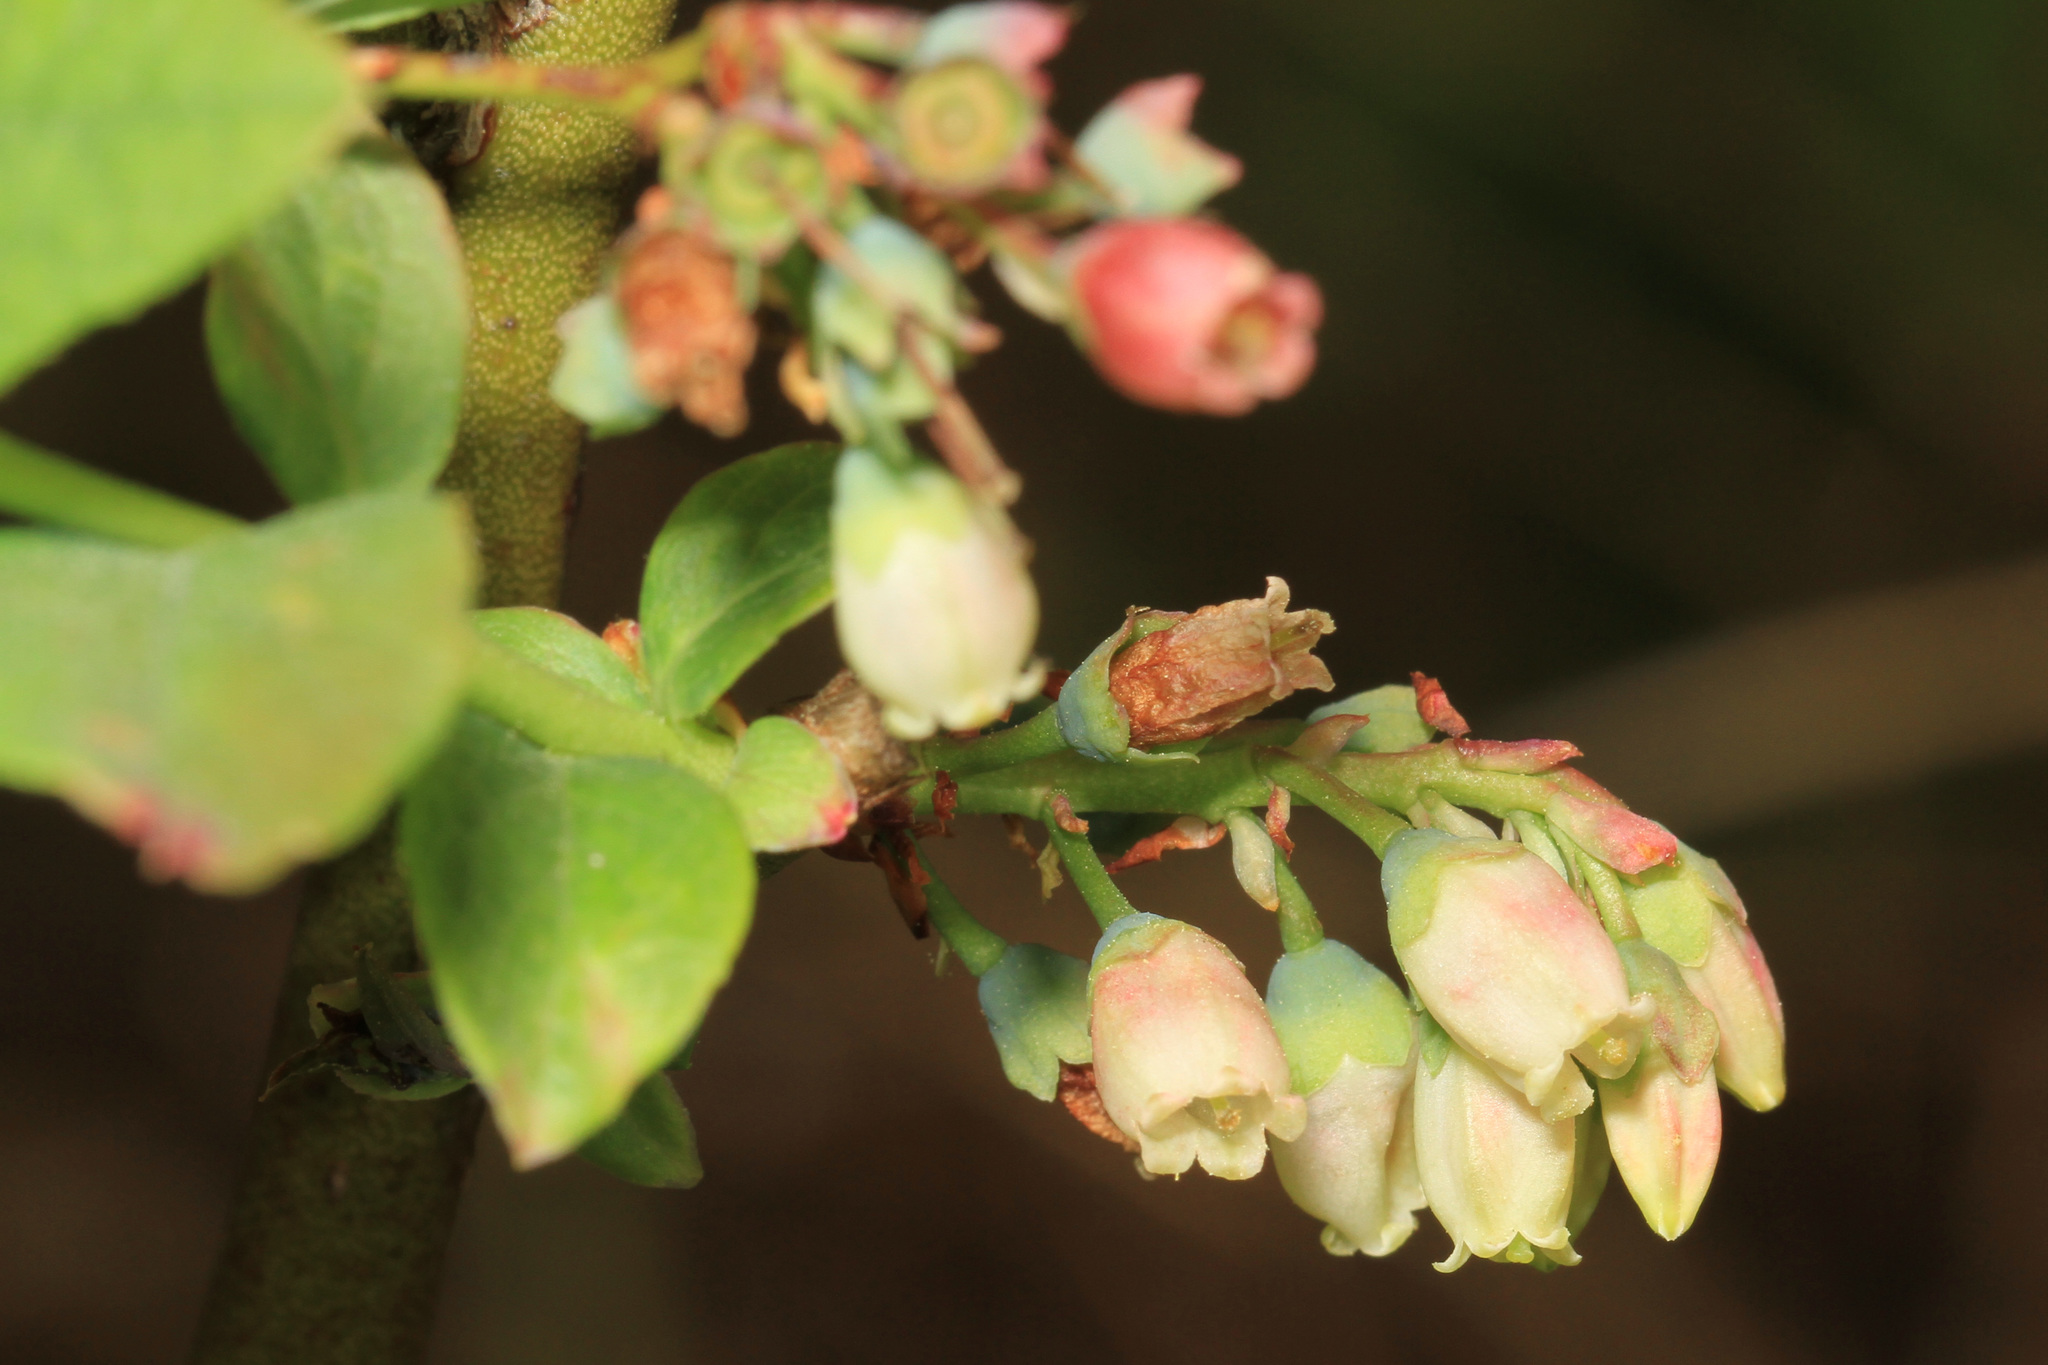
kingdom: Plantae
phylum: Tracheophyta
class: Magnoliopsida
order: Ericales
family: Ericaceae
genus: Gaylussacia
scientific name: Gaylussacia baccata
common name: Black huckleberry
